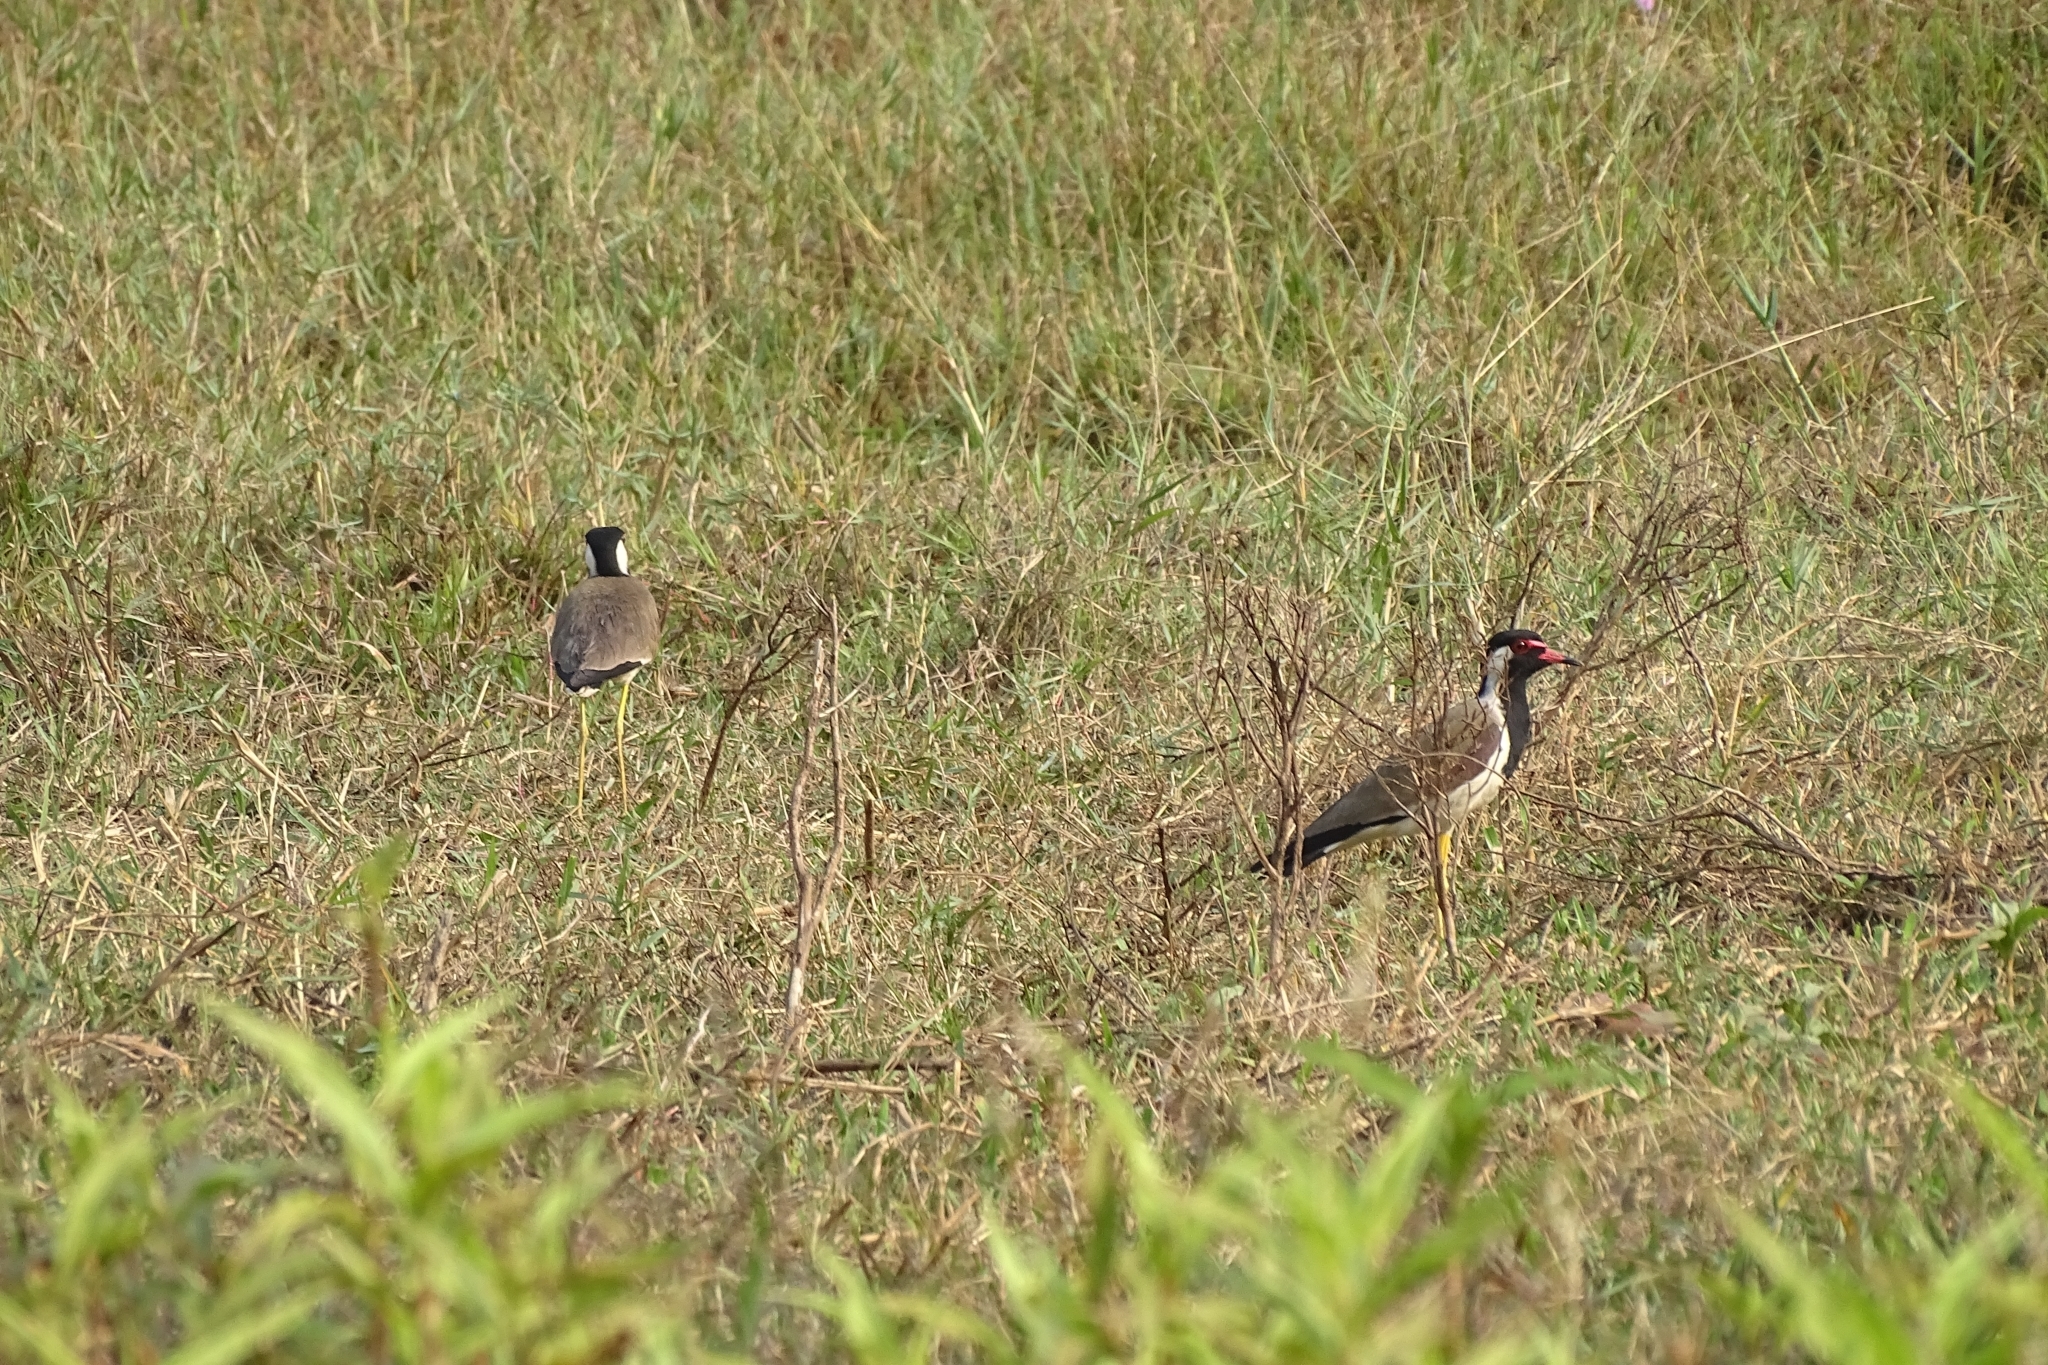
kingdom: Animalia
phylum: Chordata
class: Aves
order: Charadriiformes
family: Charadriidae
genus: Vanellus
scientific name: Vanellus indicus
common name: Red-wattled lapwing
